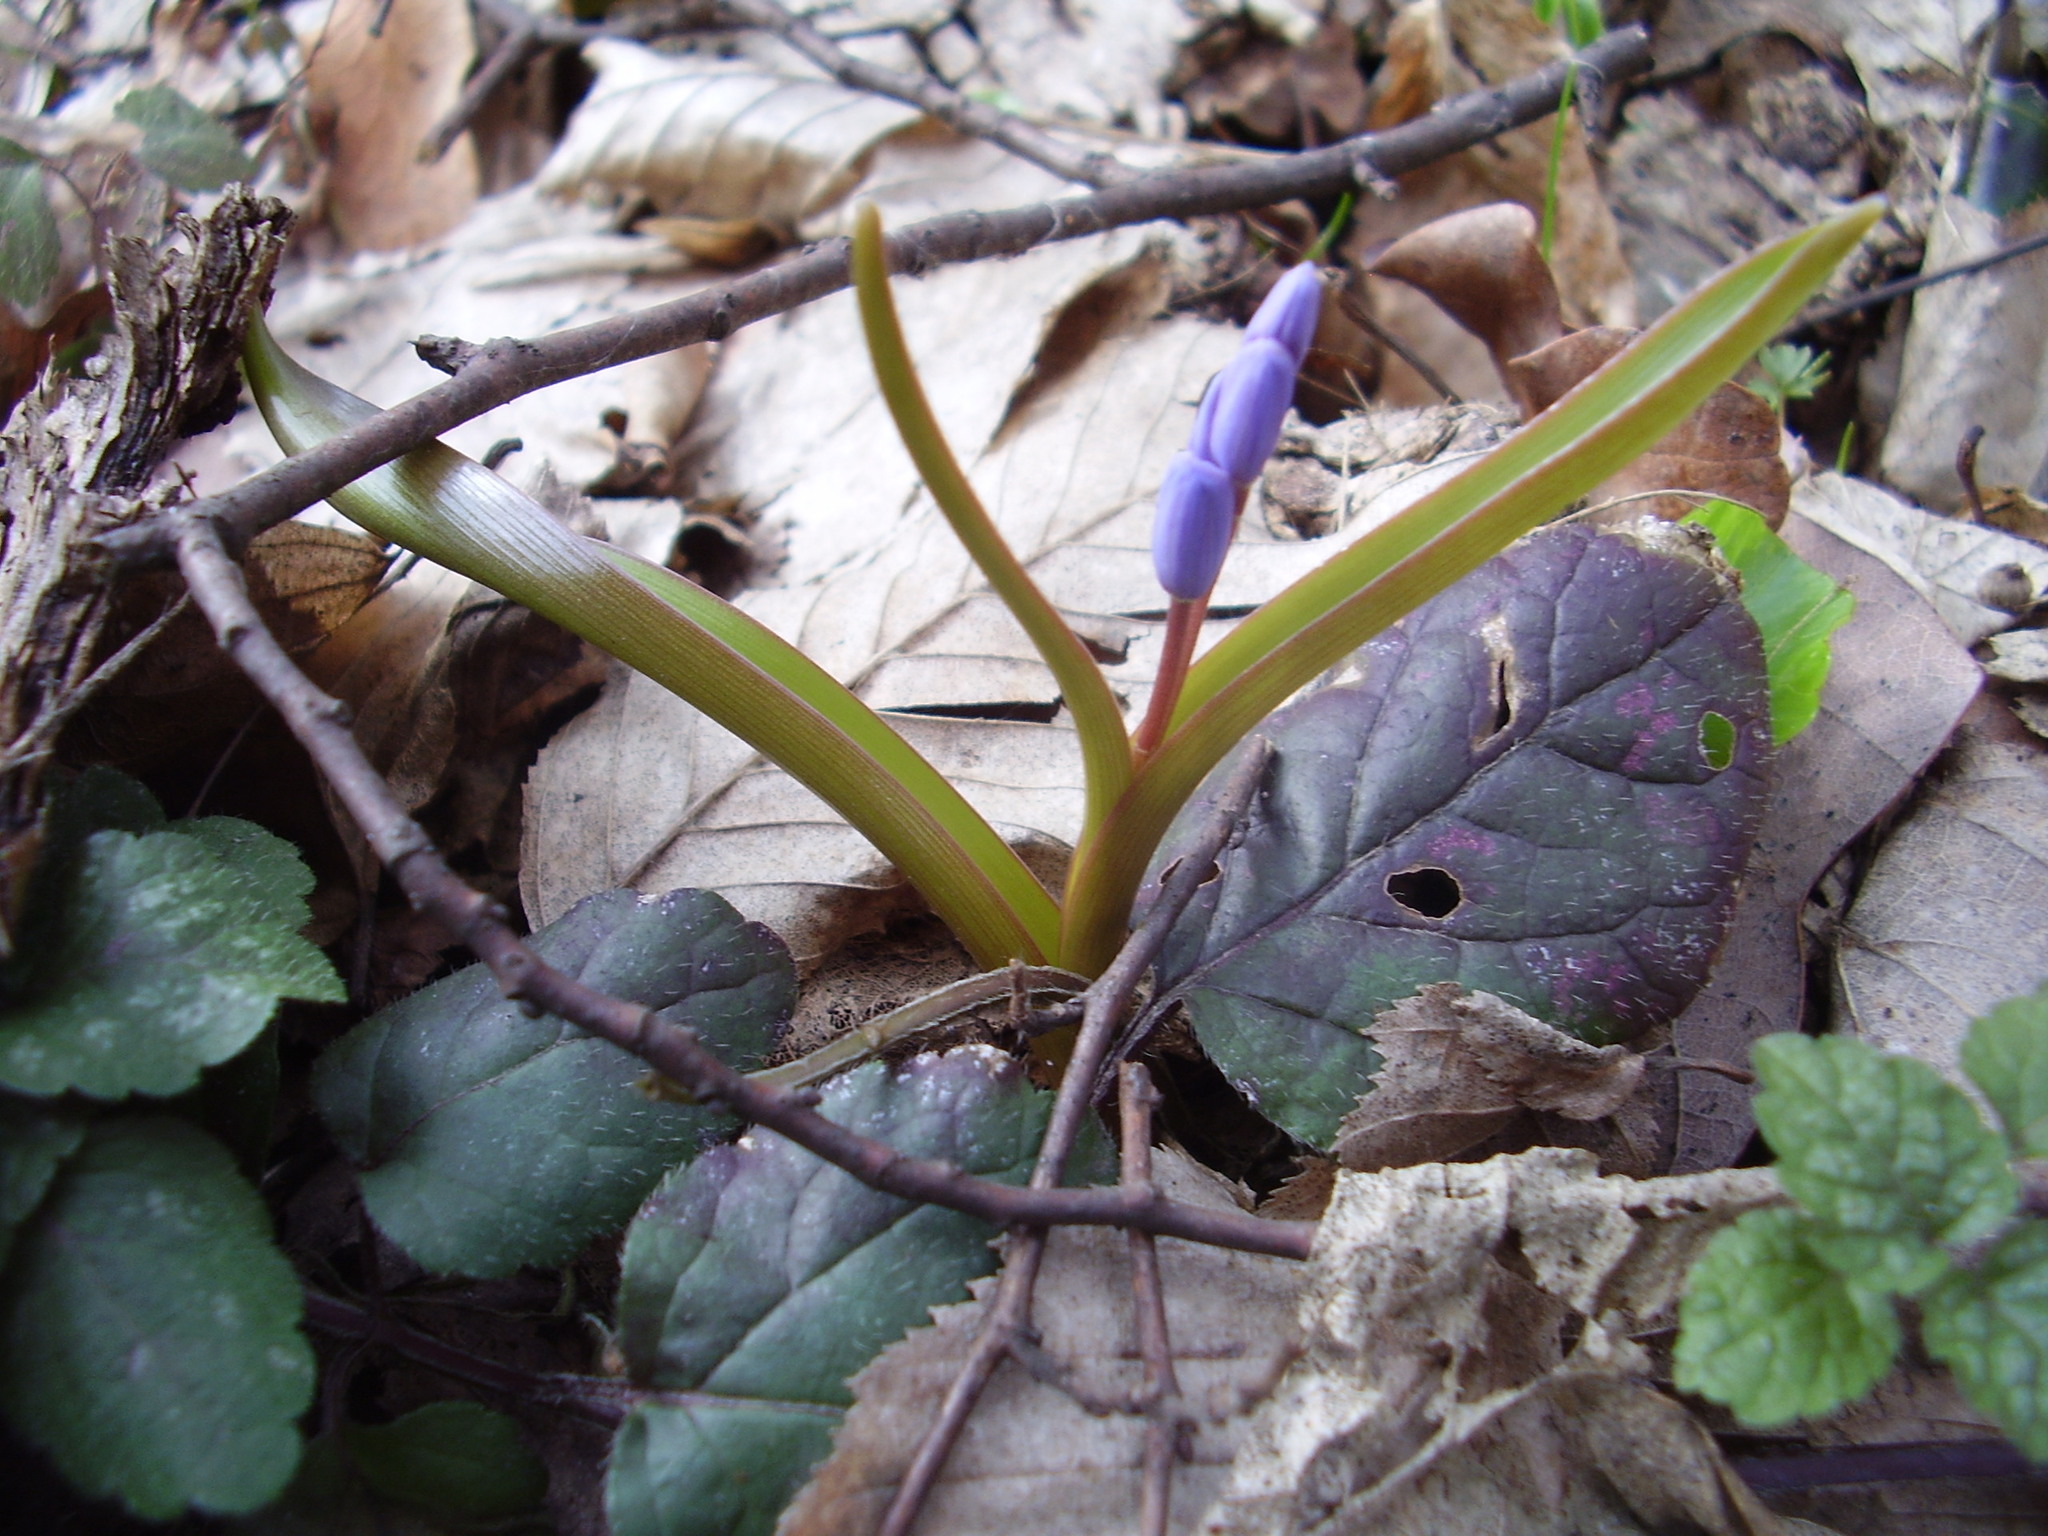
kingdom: Plantae
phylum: Tracheophyta
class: Liliopsida
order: Asparagales
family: Asparagaceae
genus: Scilla
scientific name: Scilla bifolia
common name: Alpine squill
